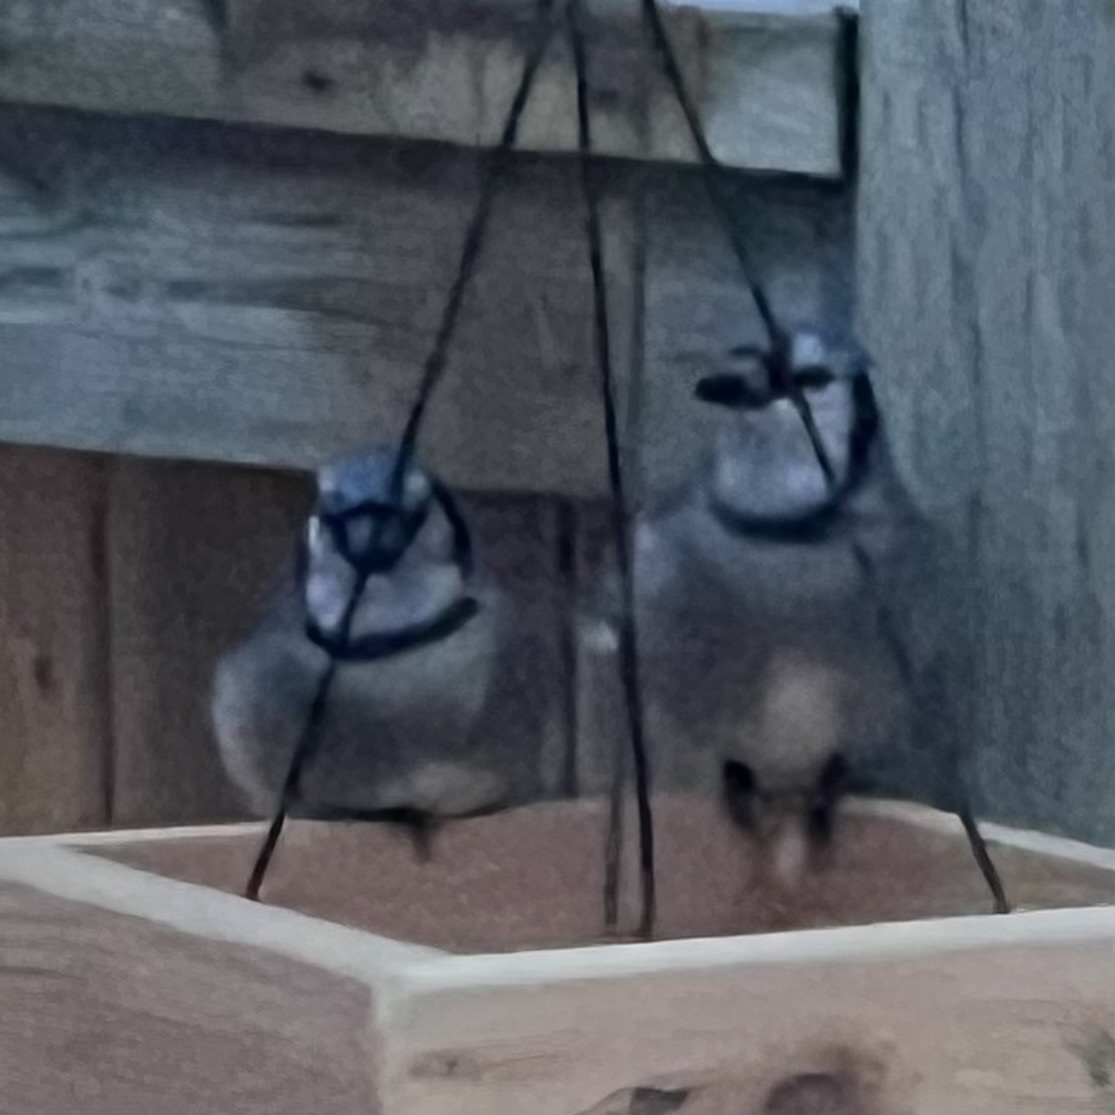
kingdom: Animalia
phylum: Chordata
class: Aves
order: Passeriformes
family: Corvidae
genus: Cyanocitta
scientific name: Cyanocitta cristata
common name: Blue jay
